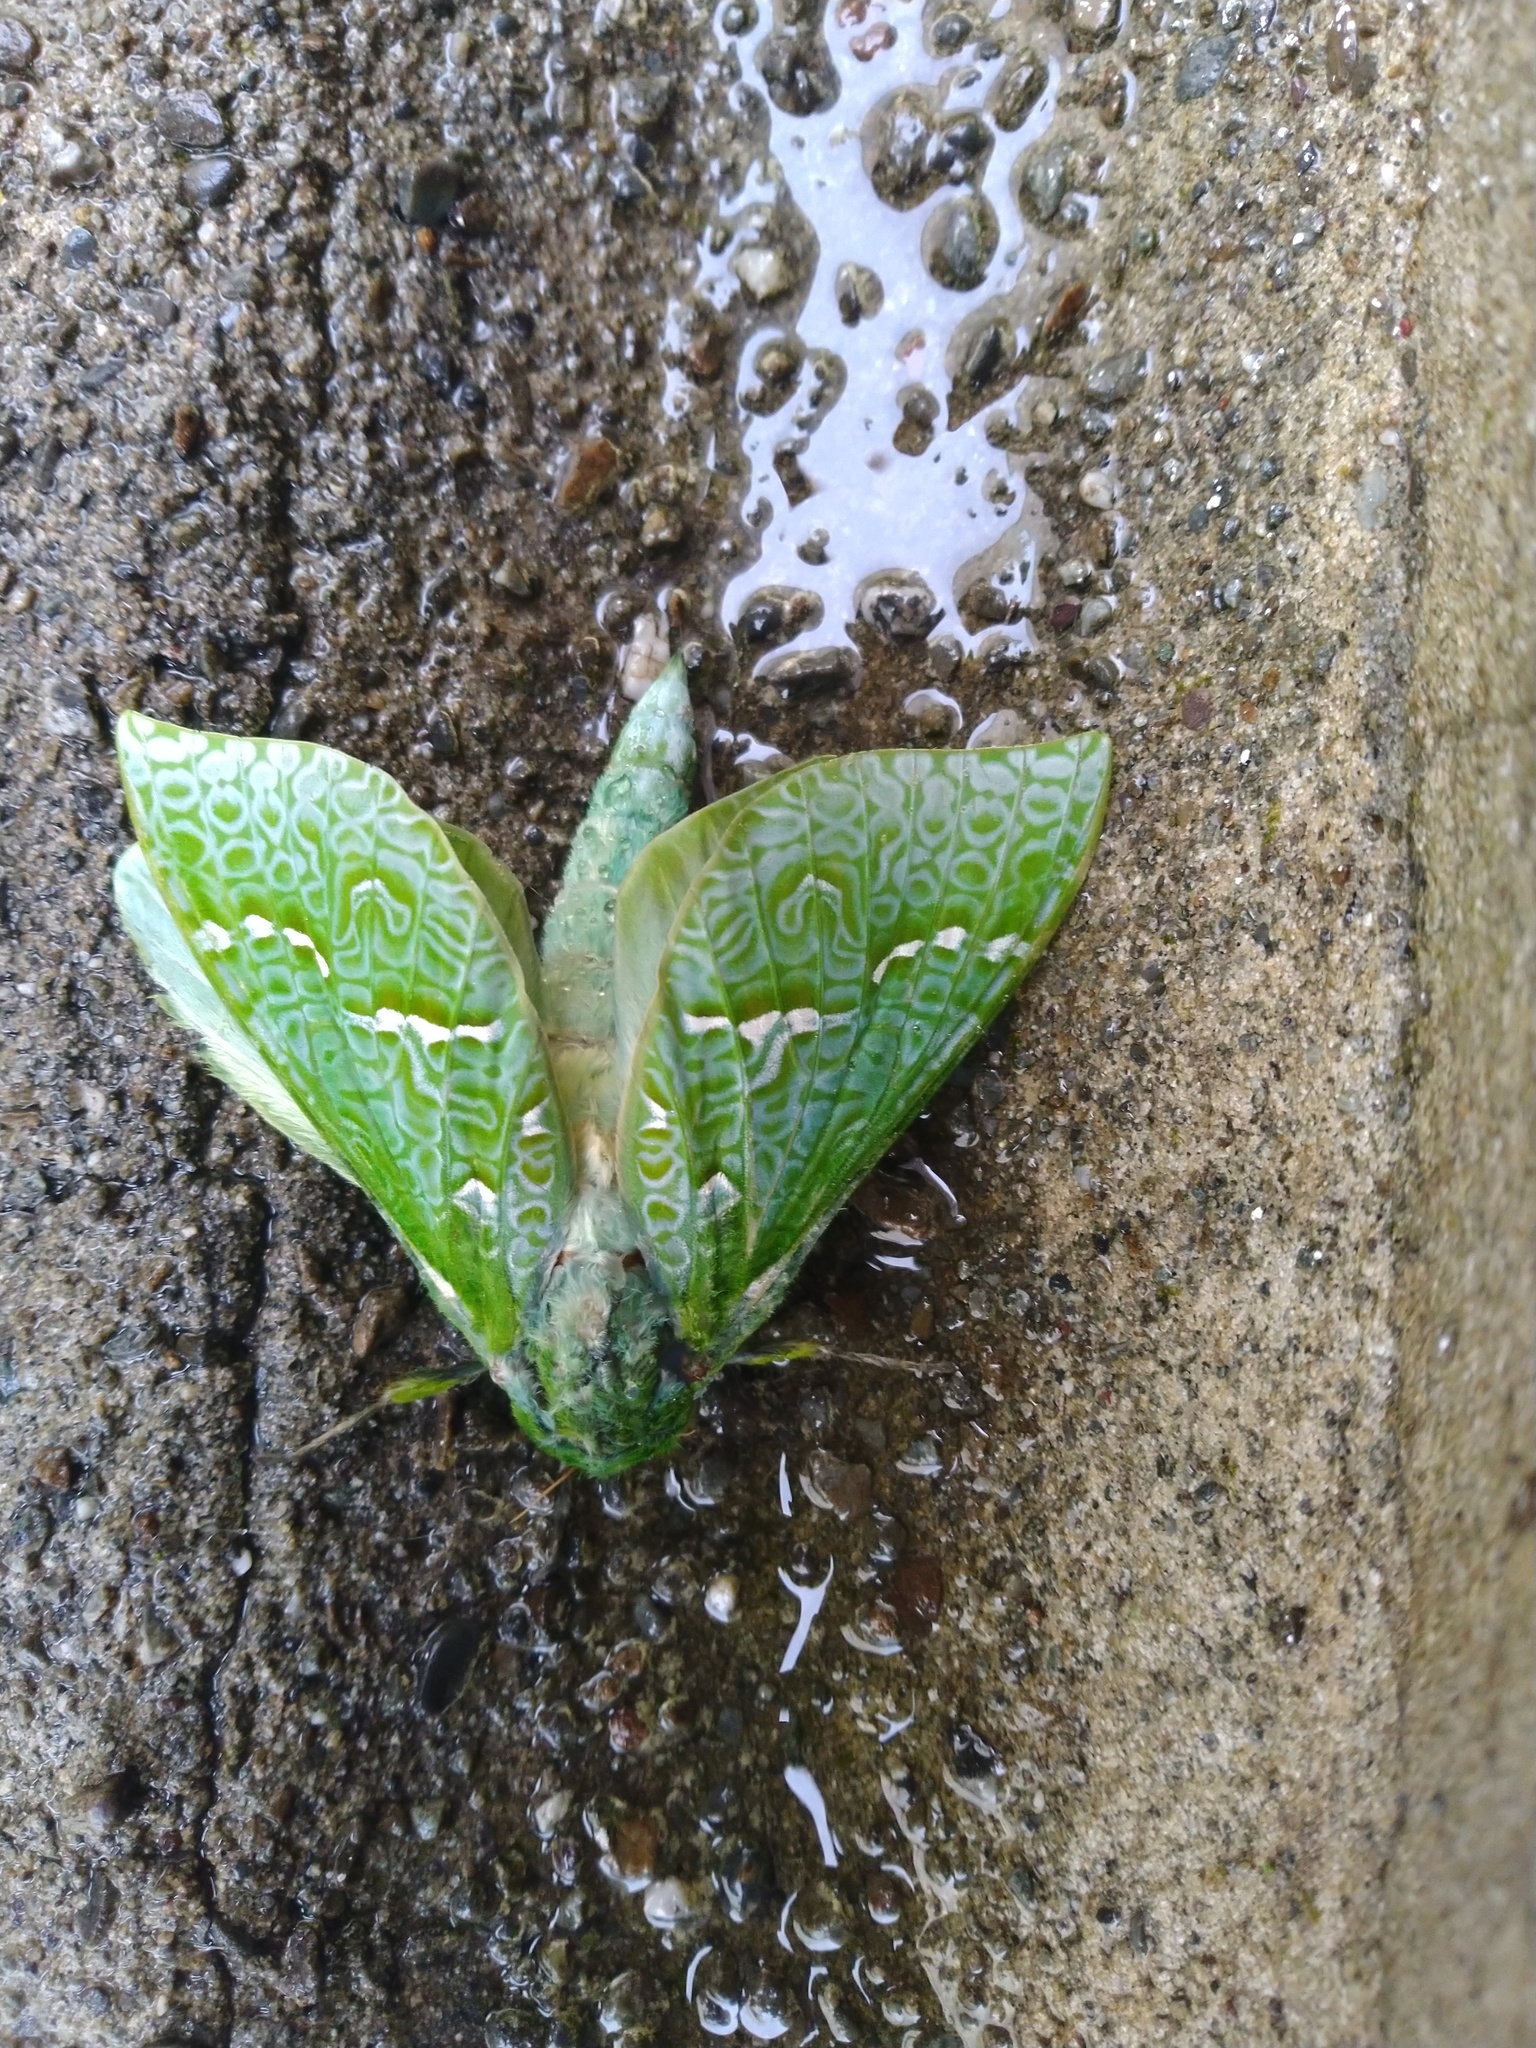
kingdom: Animalia
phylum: Arthropoda
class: Insecta
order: Lepidoptera
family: Hepialidae
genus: Aenetus
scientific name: Aenetus virescens
